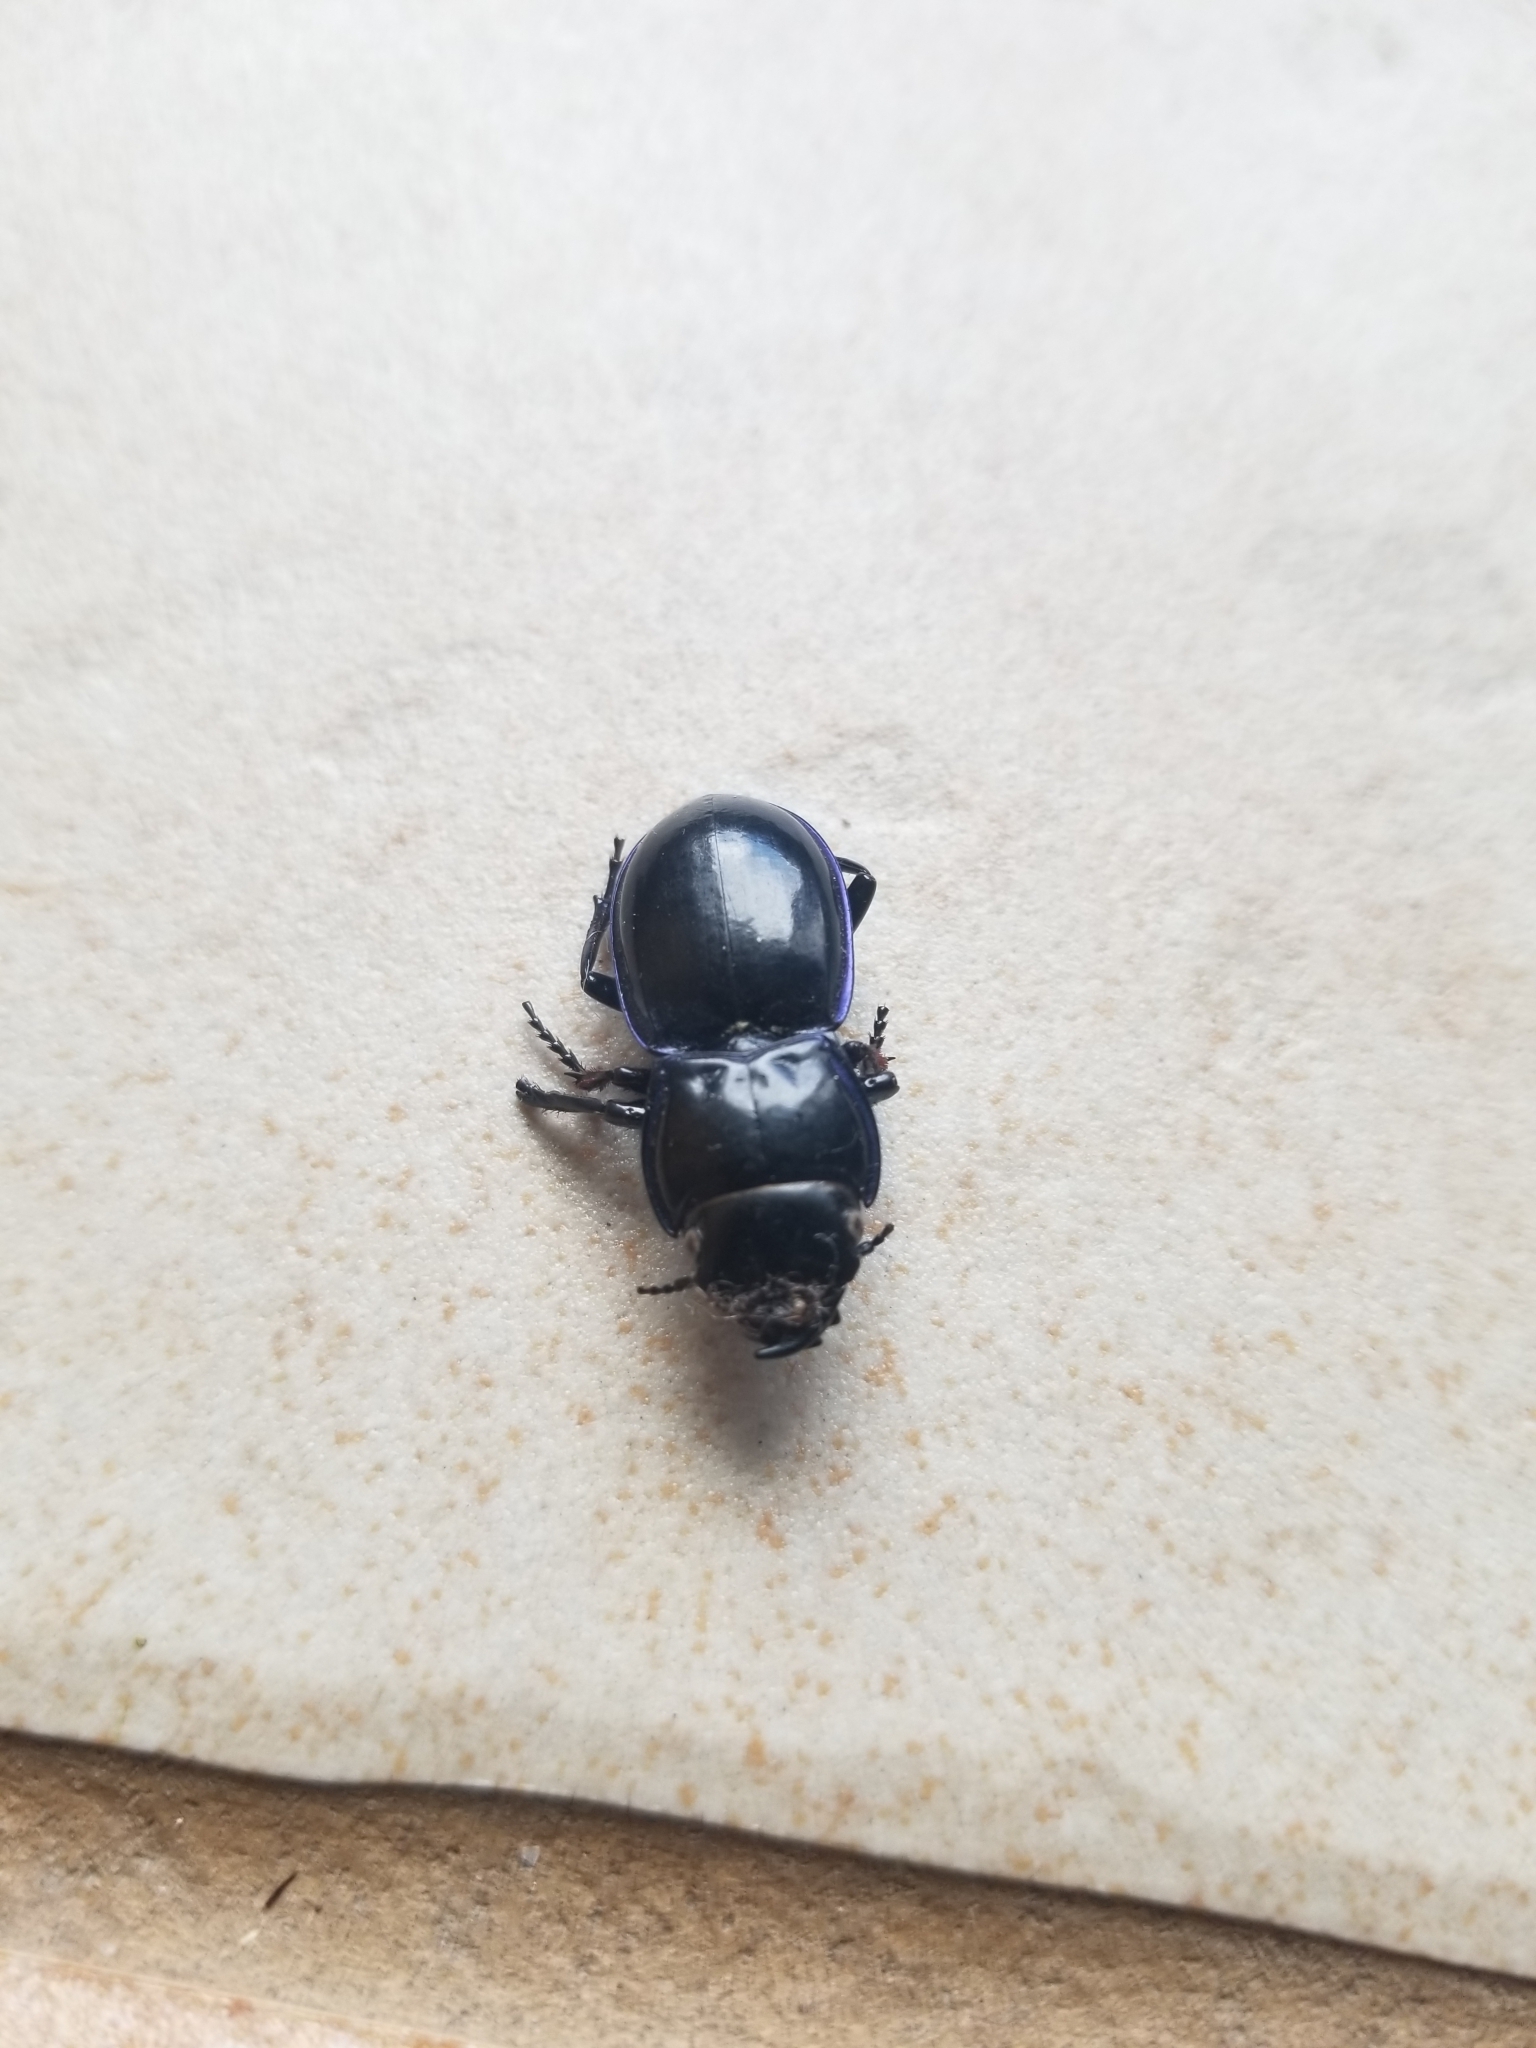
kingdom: Animalia
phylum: Arthropoda
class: Insecta
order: Coleoptera
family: Carabidae
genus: Pasimachus
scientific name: Pasimachus elongatus
